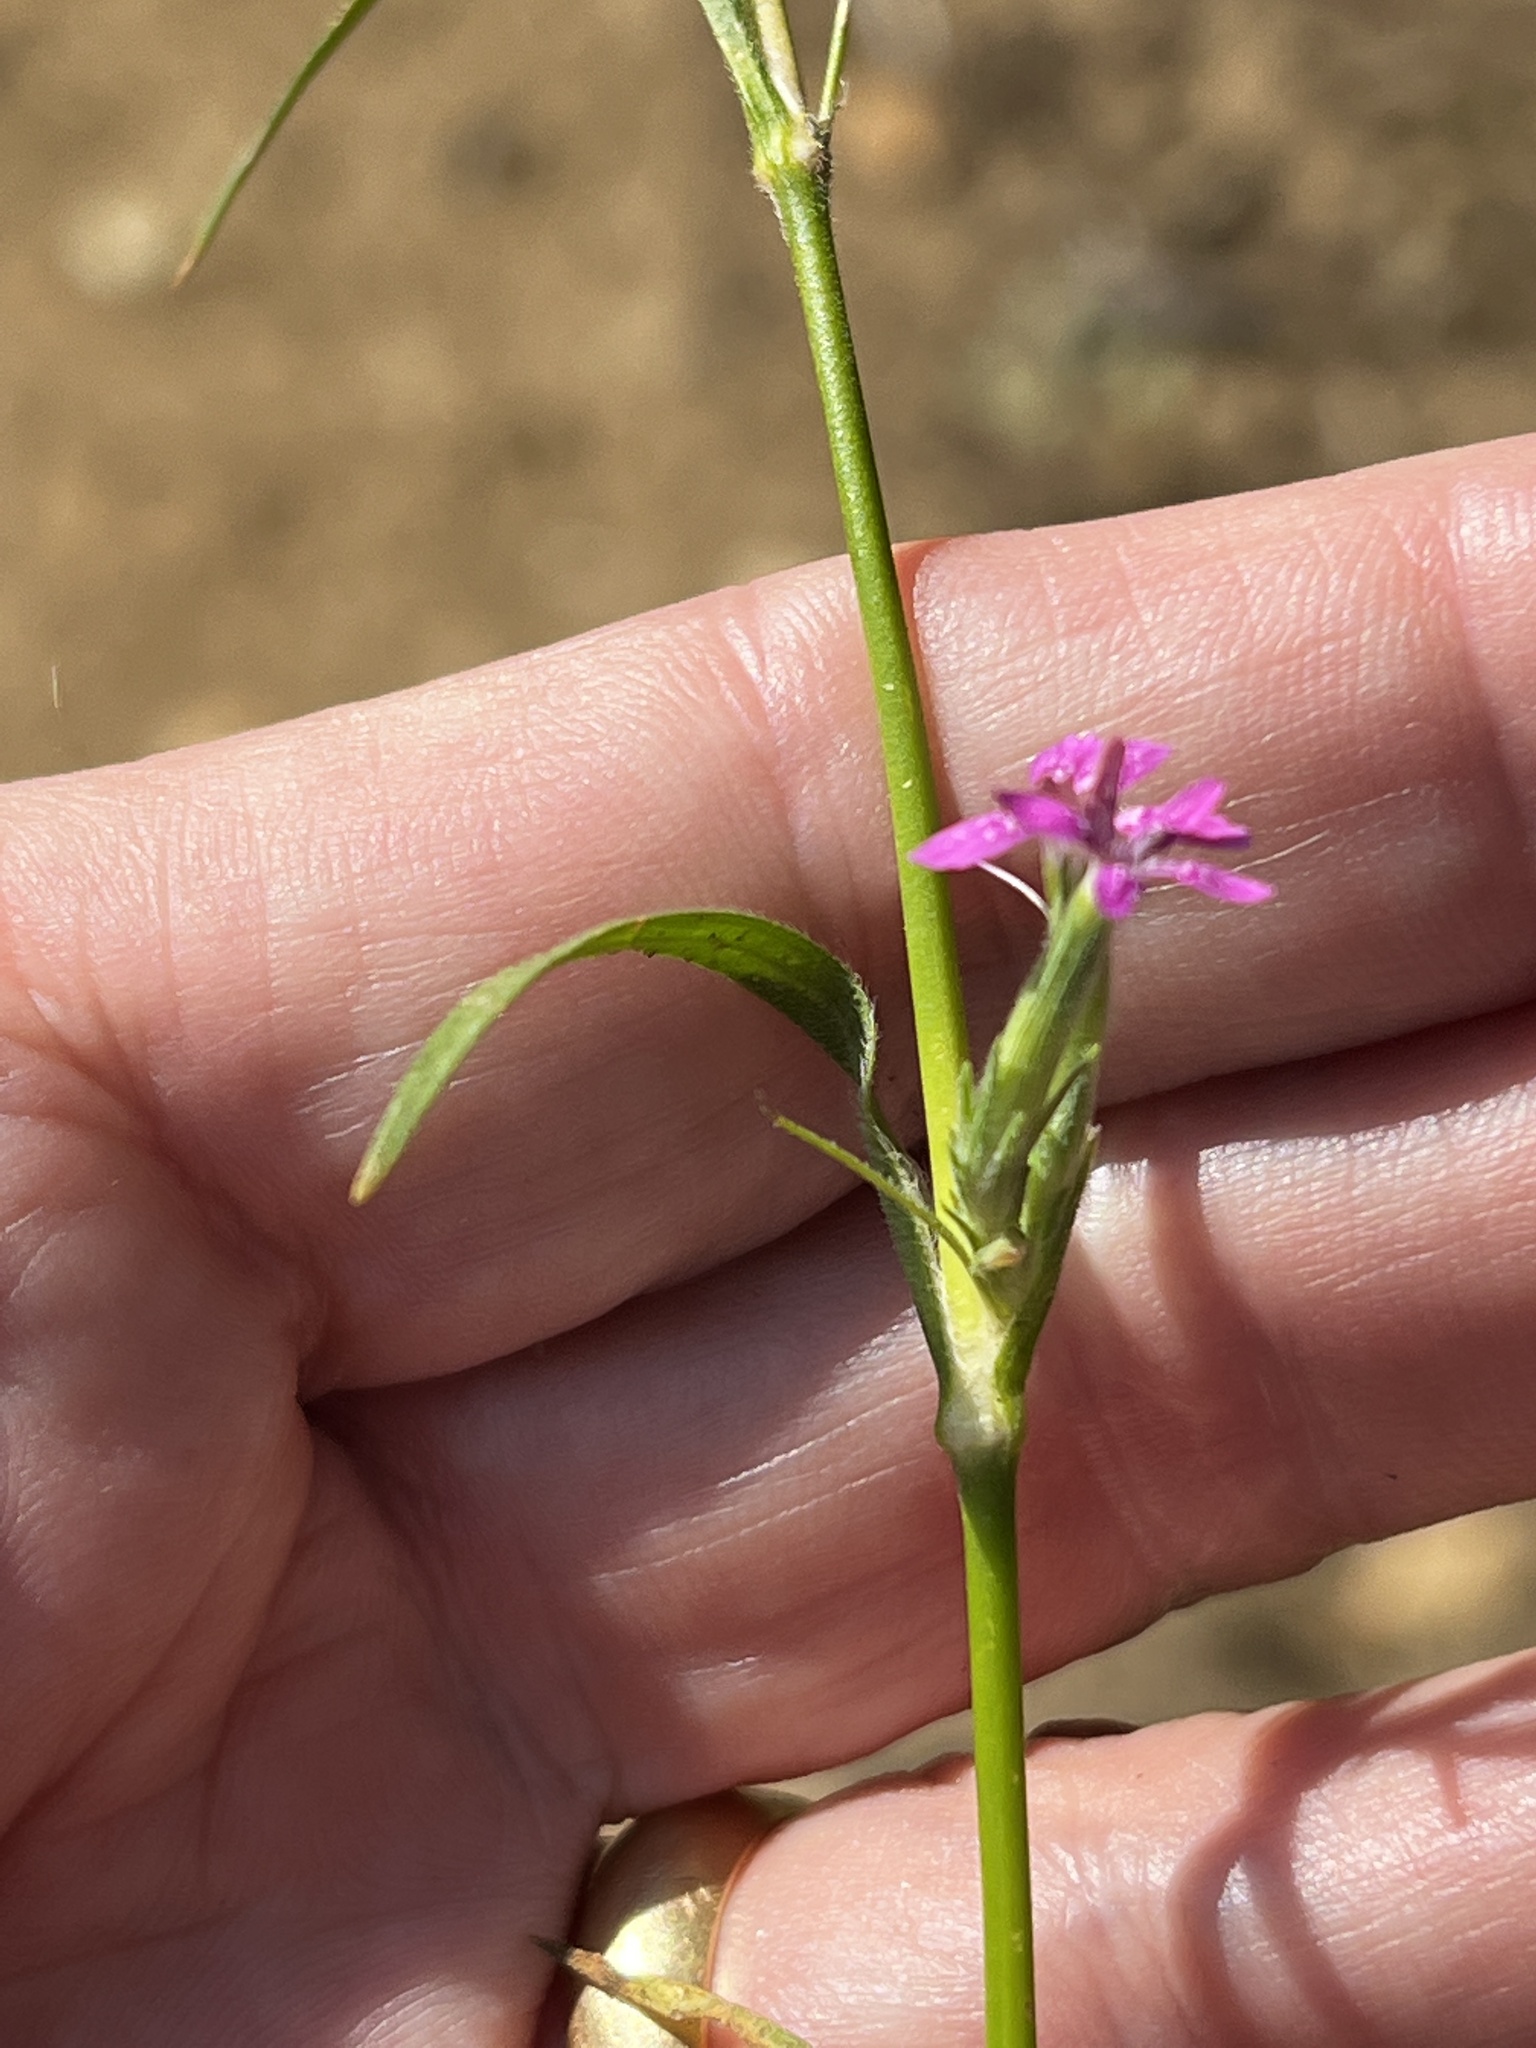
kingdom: Plantae
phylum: Tracheophyta
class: Magnoliopsida
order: Caryophyllales
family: Caryophyllaceae
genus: Dianthus
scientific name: Dianthus armeria
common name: Deptford pink
